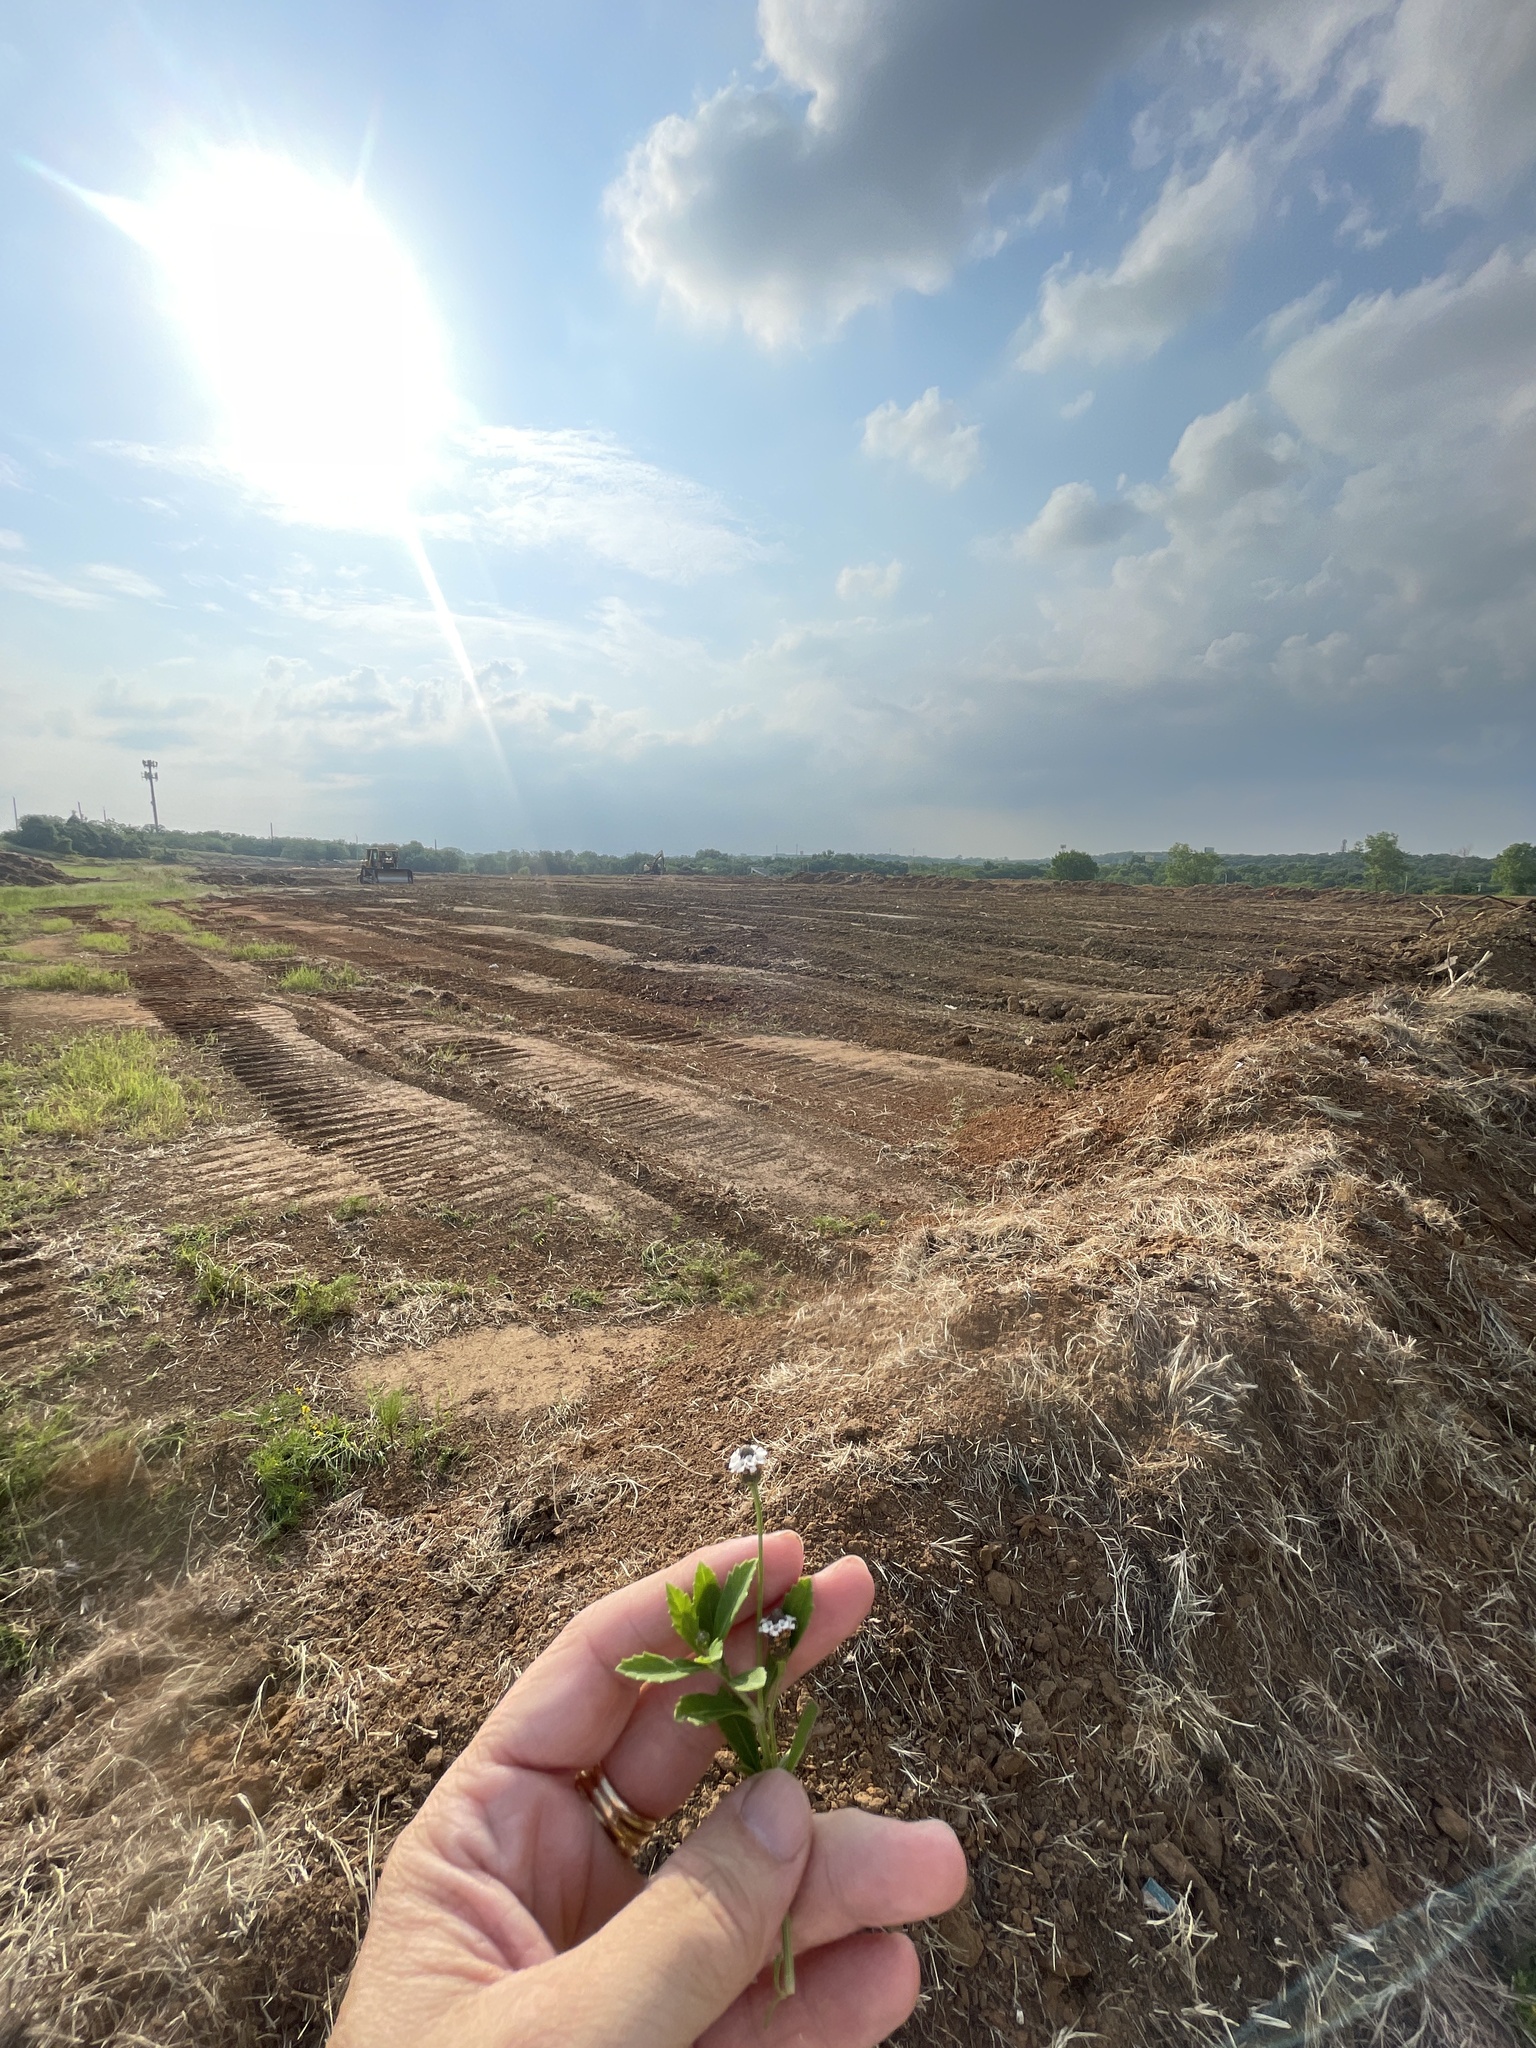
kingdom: Plantae
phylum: Tracheophyta
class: Magnoliopsida
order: Lamiales
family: Verbenaceae
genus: Phyla
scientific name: Phyla nodiflora
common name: Frogfruit
